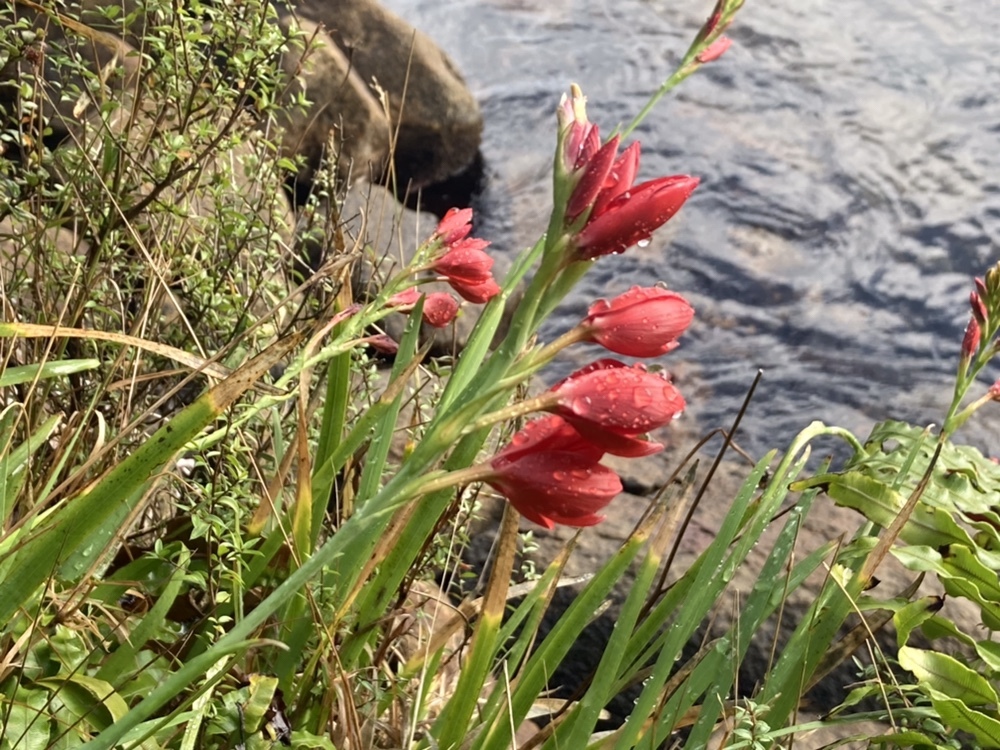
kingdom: Plantae
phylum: Tracheophyta
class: Liliopsida
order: Asparagales
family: Iridaceae
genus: Hesperantha
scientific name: Hesperantha coccinea
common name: River-lily
